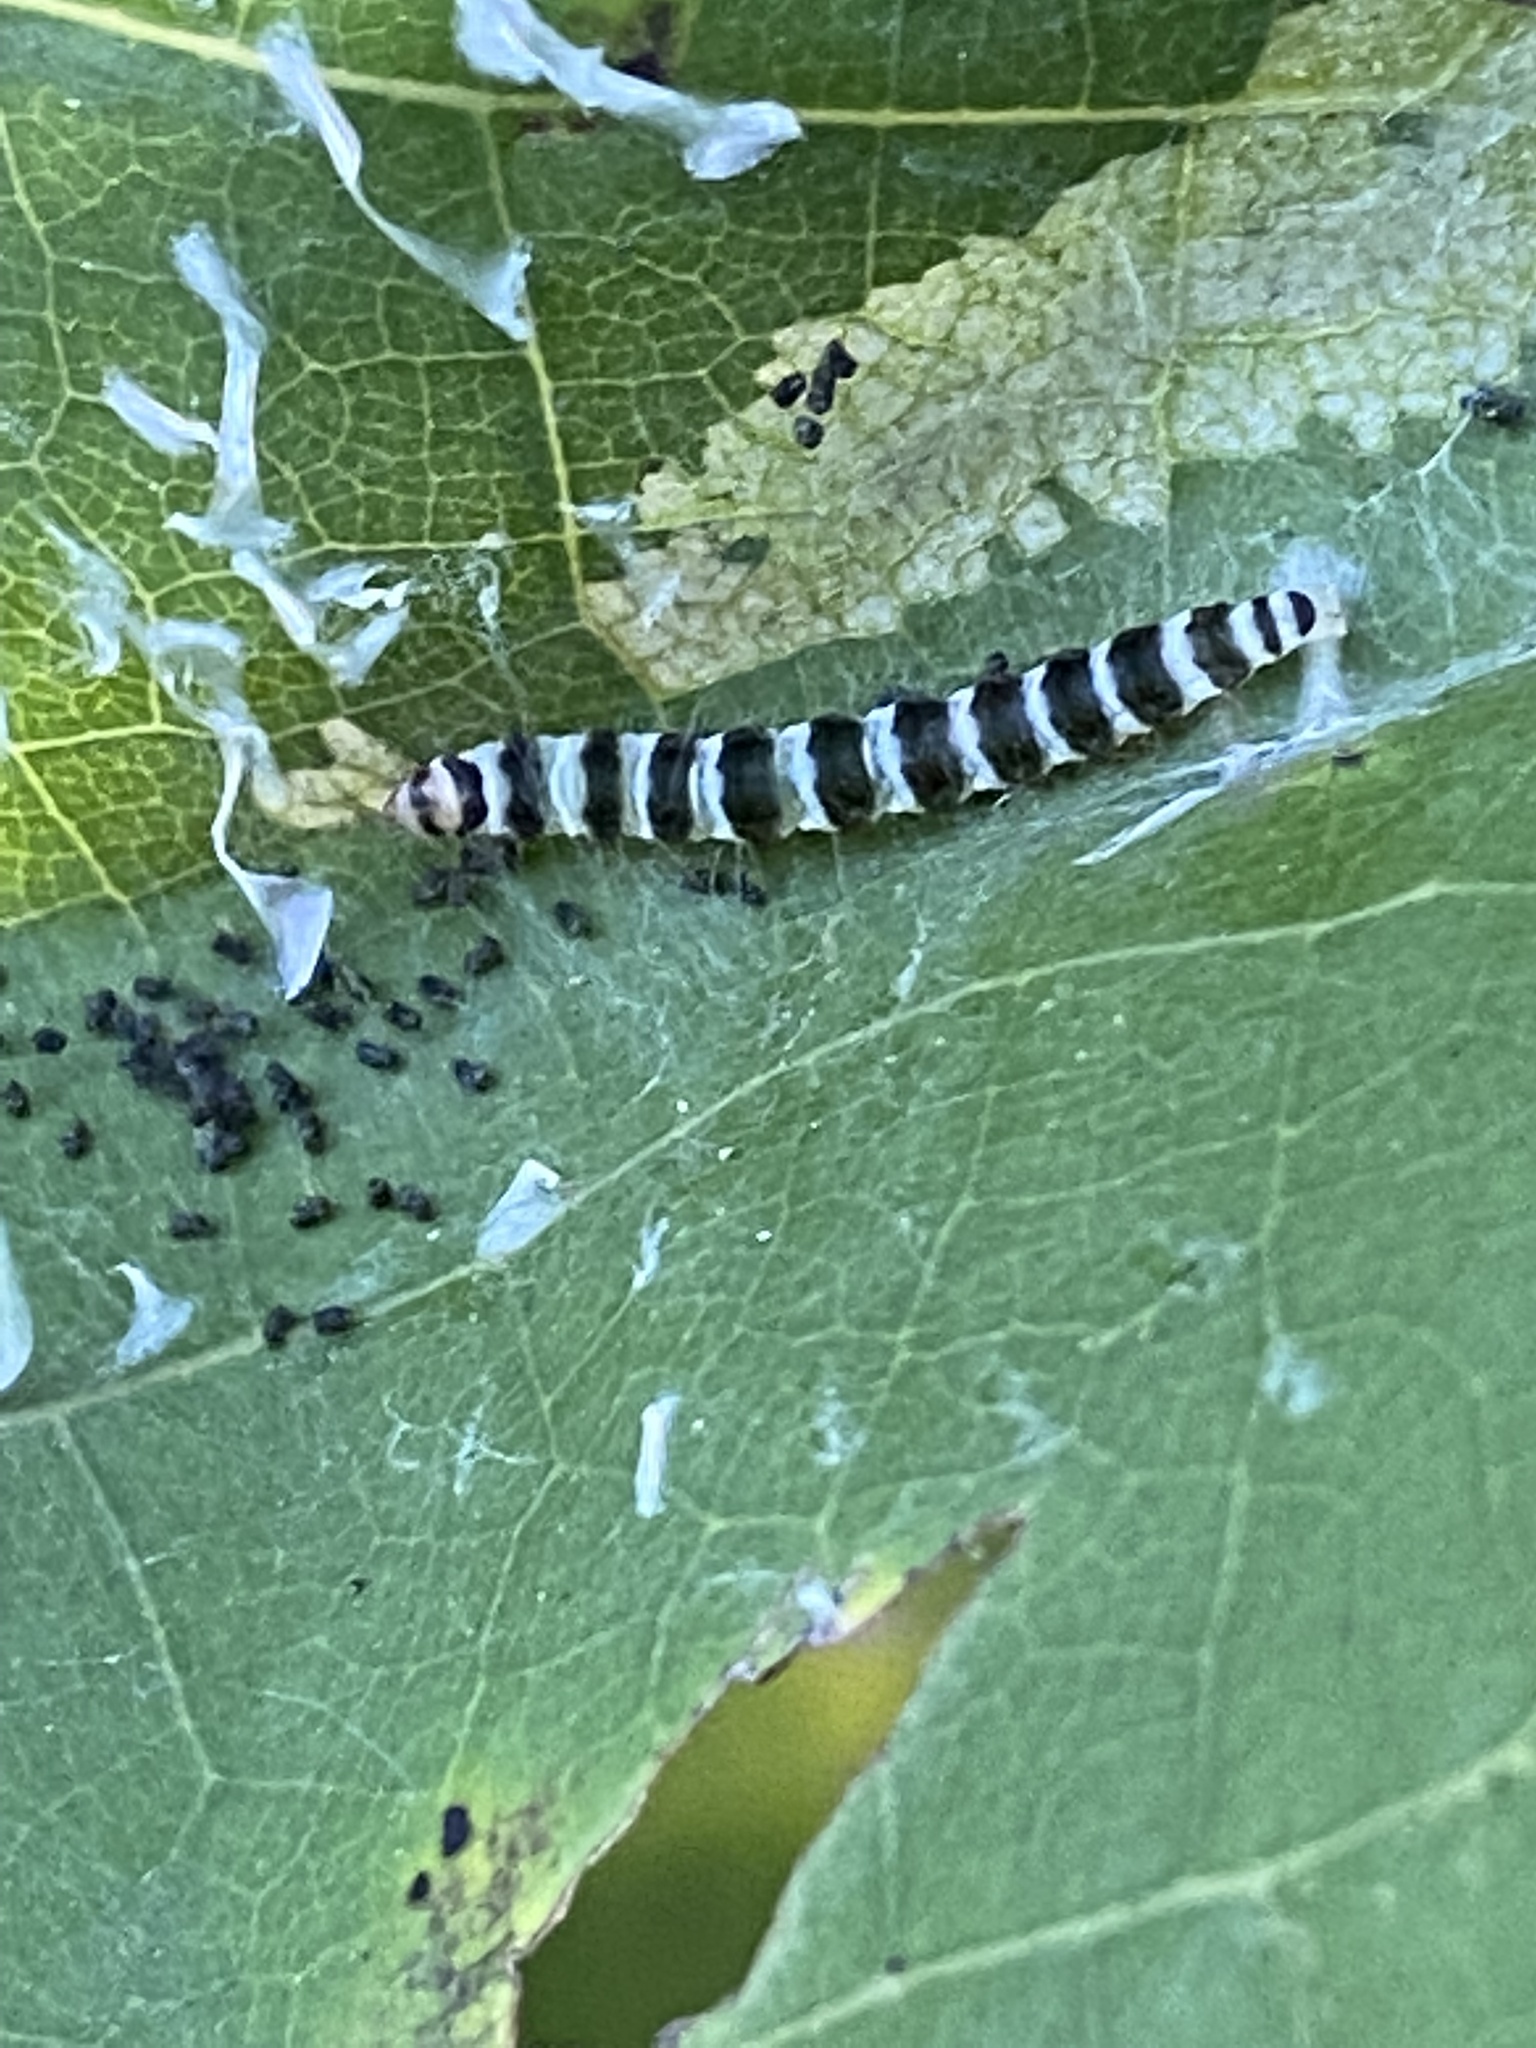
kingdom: Animalia
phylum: Arthropoda
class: Insecta
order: Lepidoptera
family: Gelechiidae
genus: Fascista
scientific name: Fascista cercerisella
